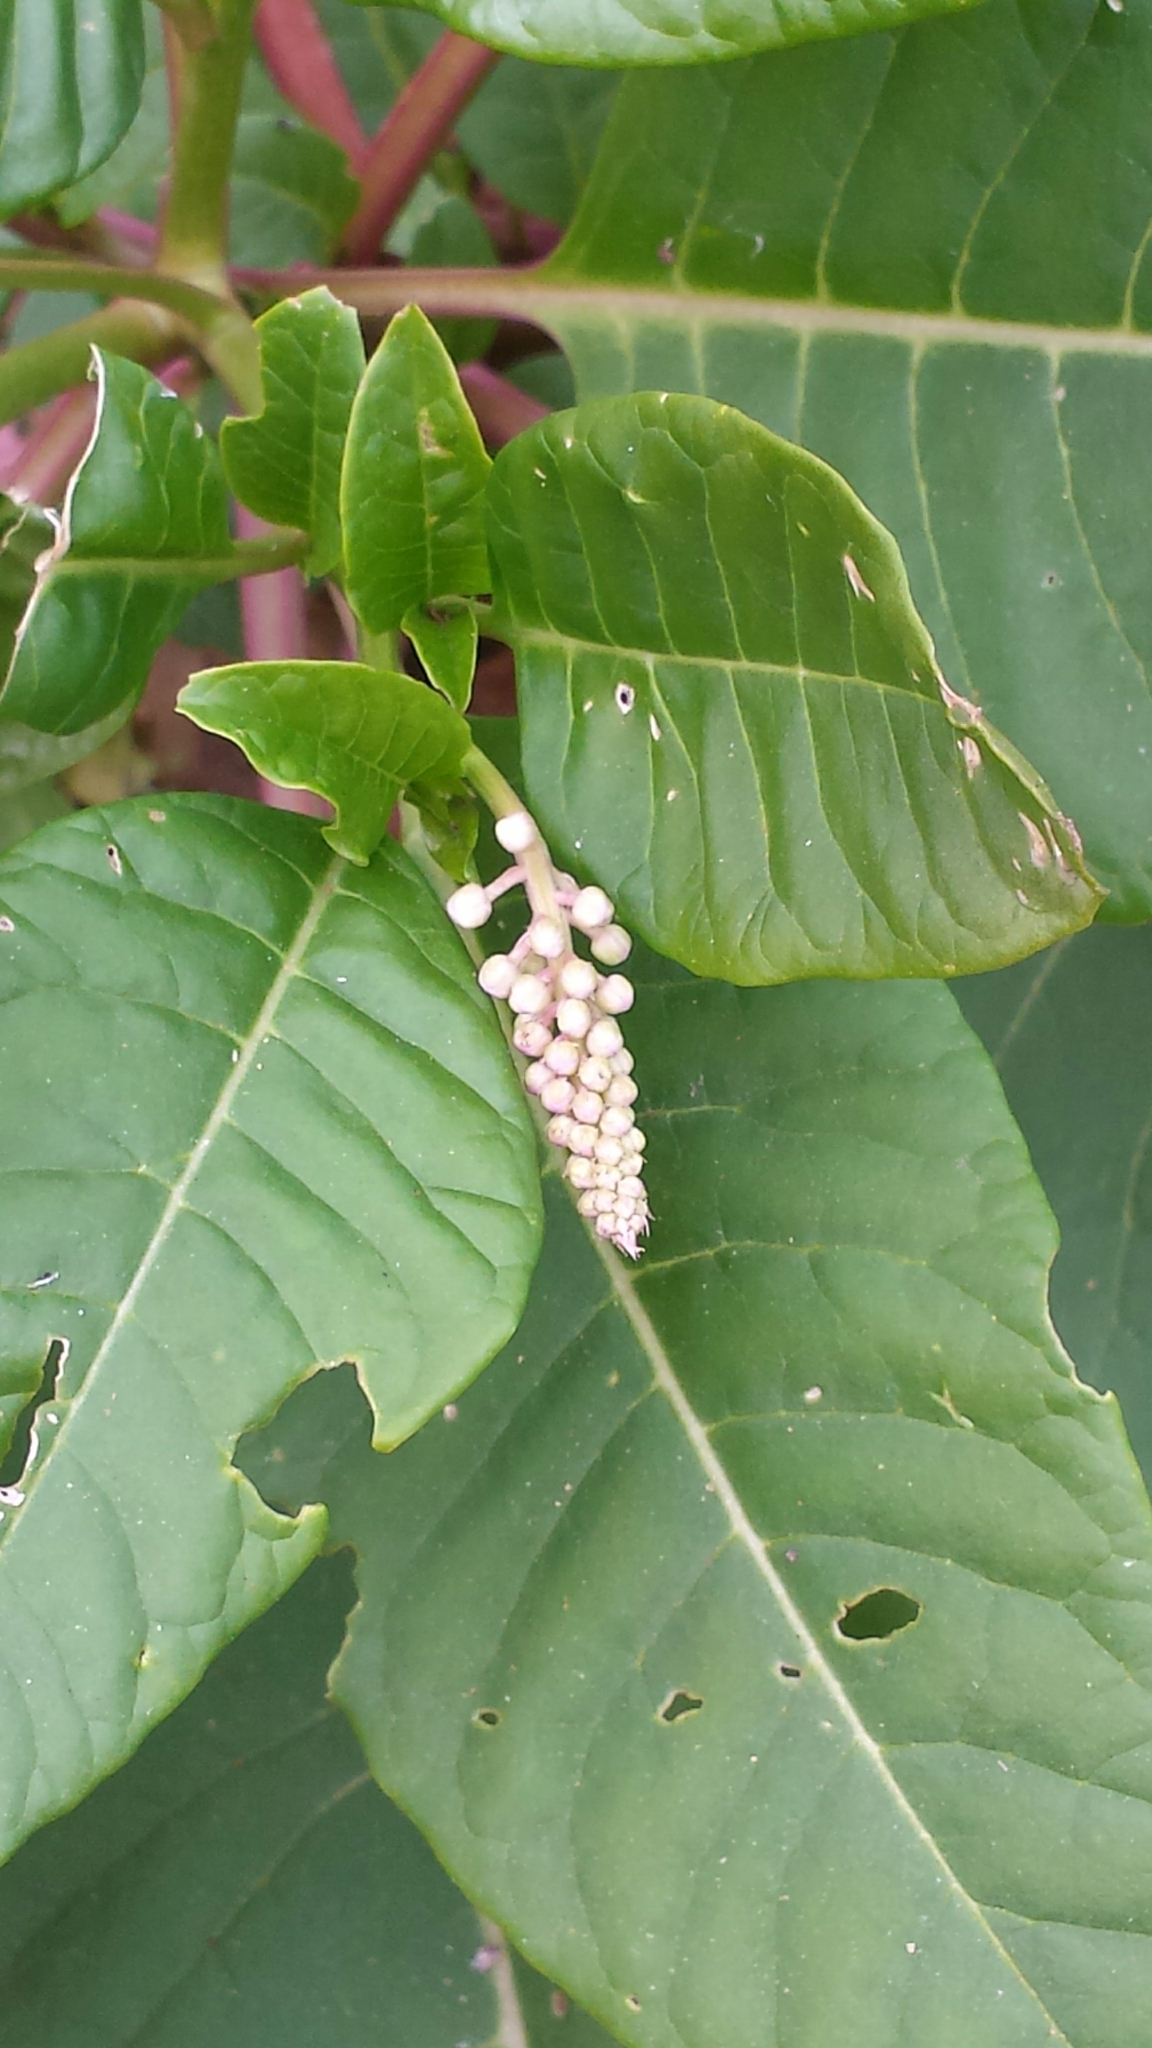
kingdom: Plantae
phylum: Tracheophyta
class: Magnoliopsida
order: Caryophyllales
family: Phytolaccaceae
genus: Phytolacca
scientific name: Phytolacca americana
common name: American pokeweed
